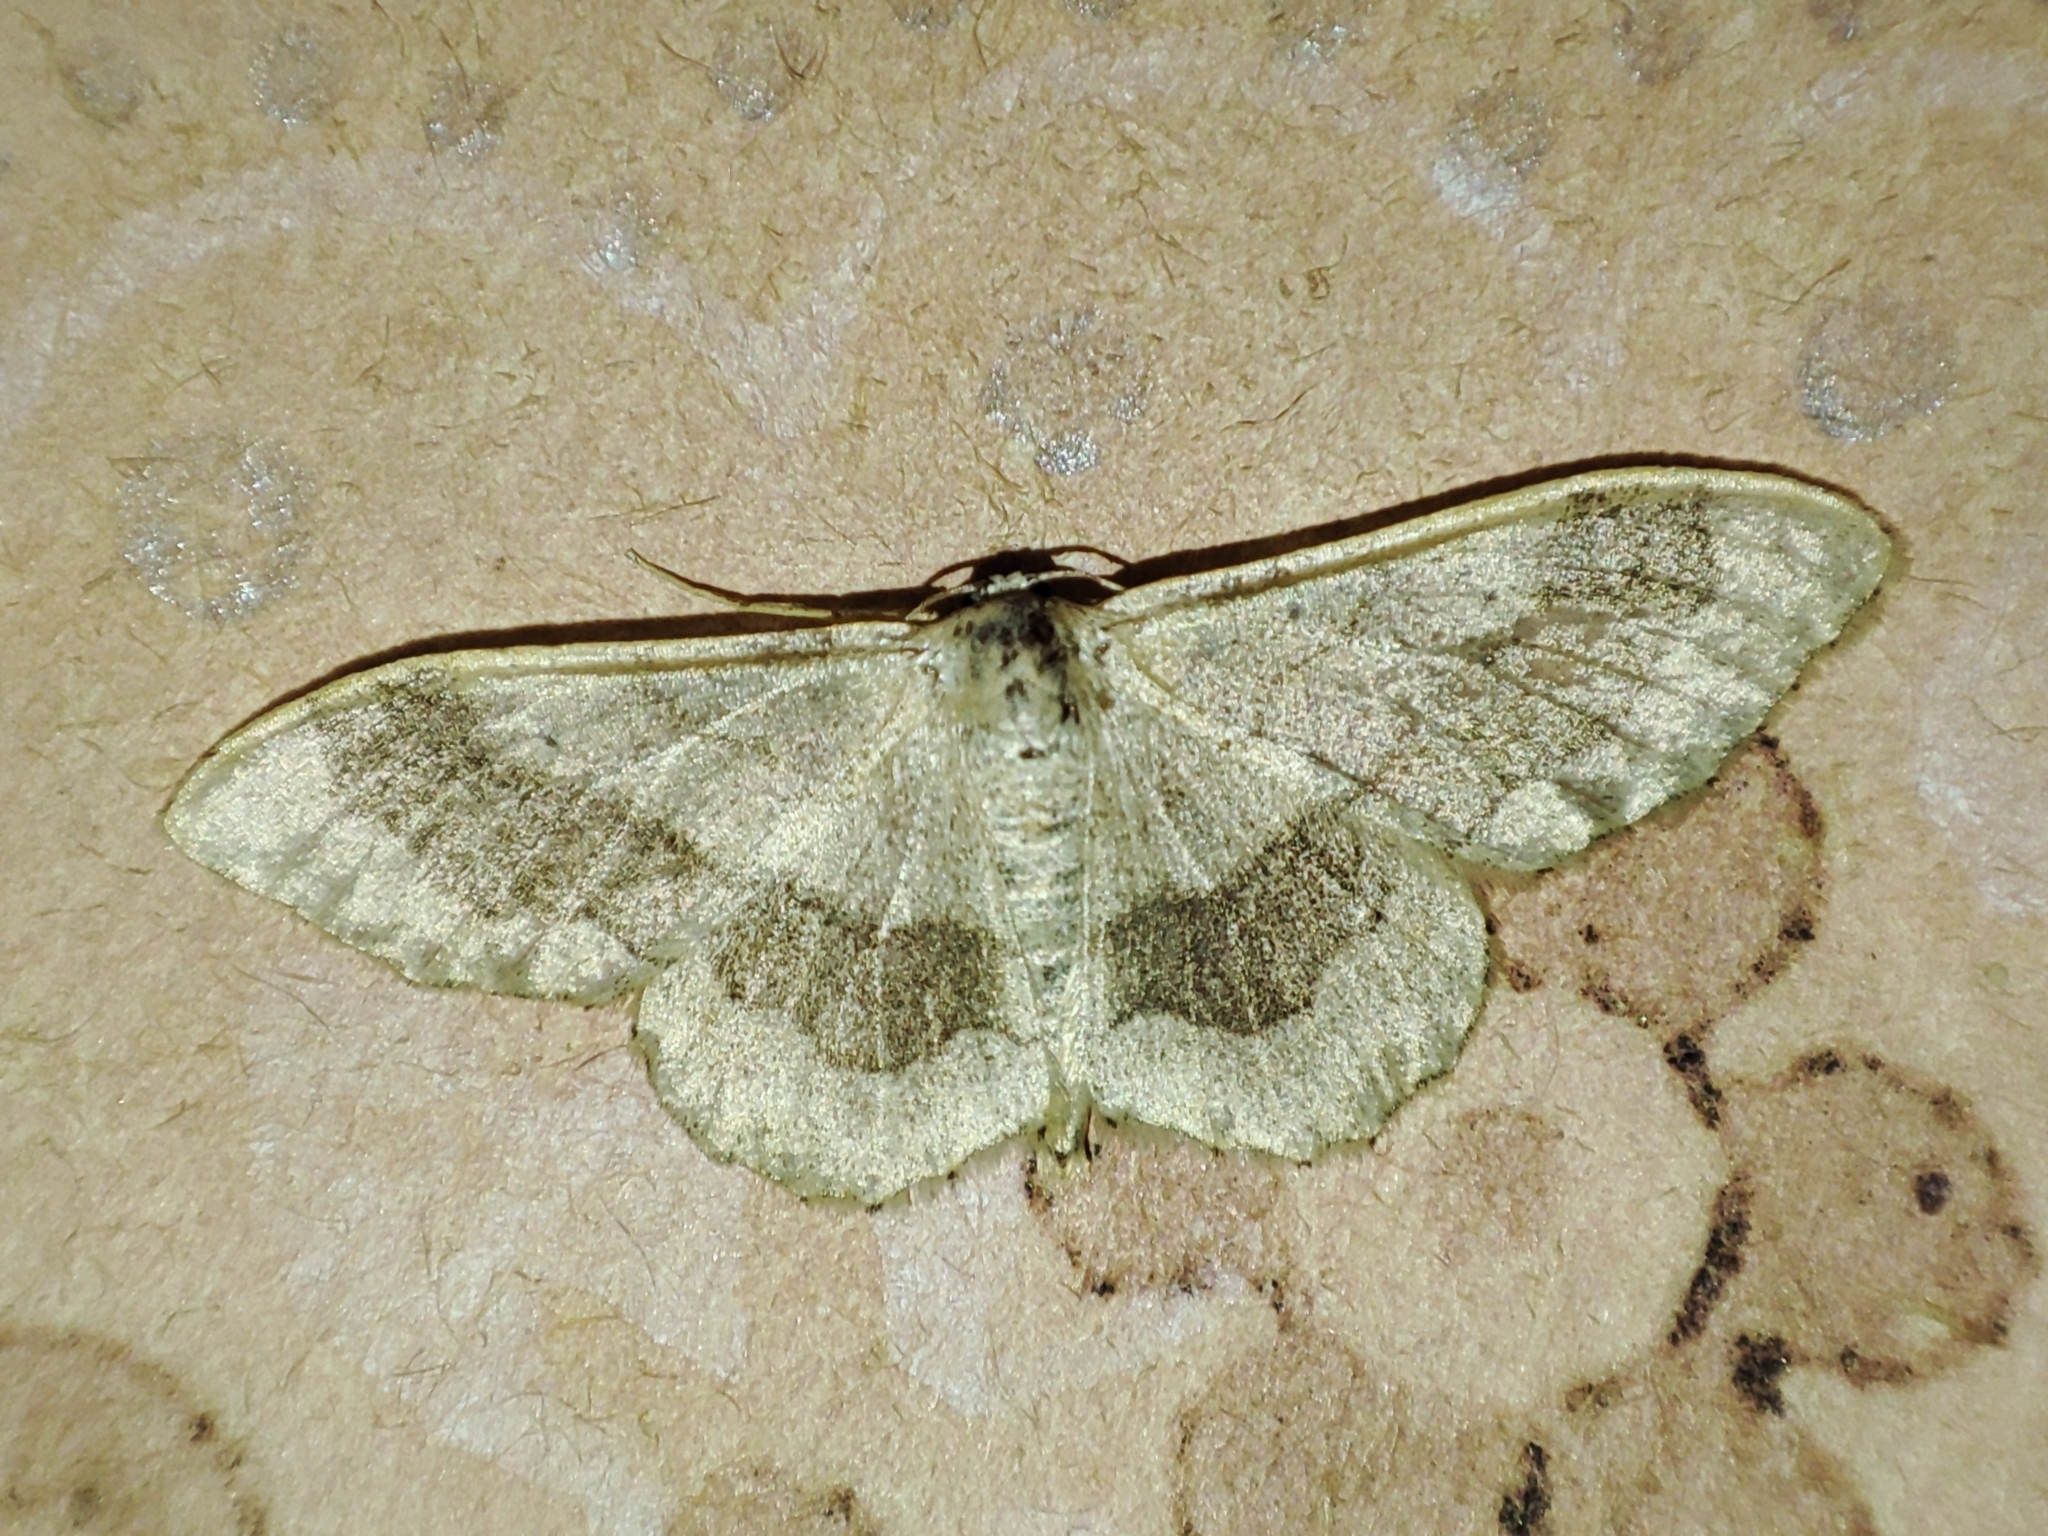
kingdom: Animalia
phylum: Arthropoda
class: Insecta
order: Lepidoptera
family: Geometridae
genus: Idaea
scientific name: Idaea aversata
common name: Riband wave
